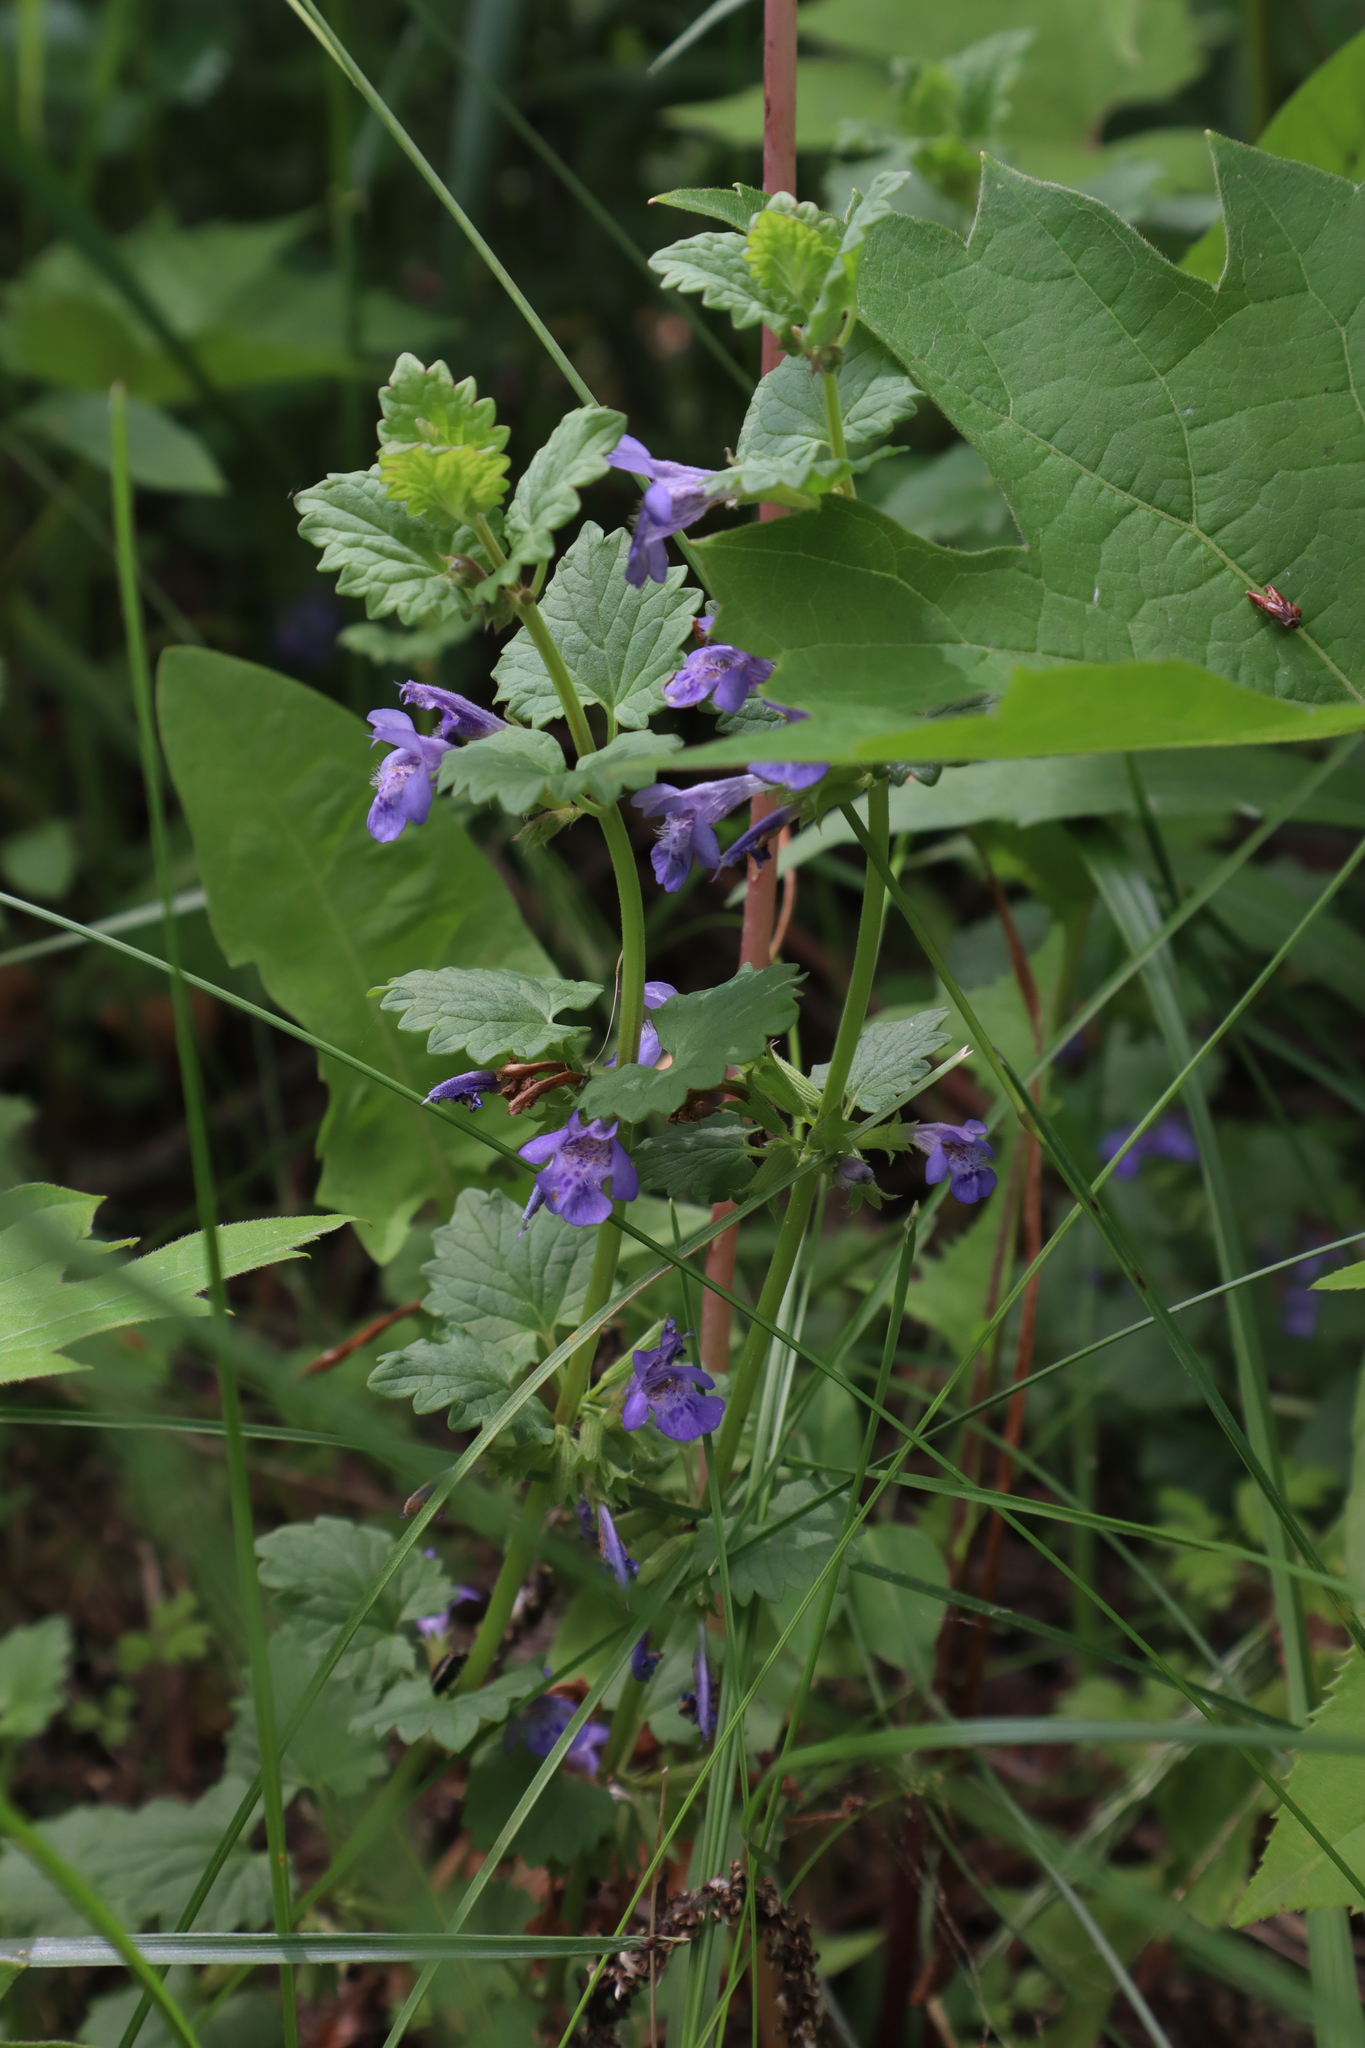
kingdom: Plantae
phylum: Tracheophyta
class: Magnoliopsida
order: Lamiales
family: Lamiaceae
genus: Glechoma
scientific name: Glechoma hederacea
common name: Ground ivy
